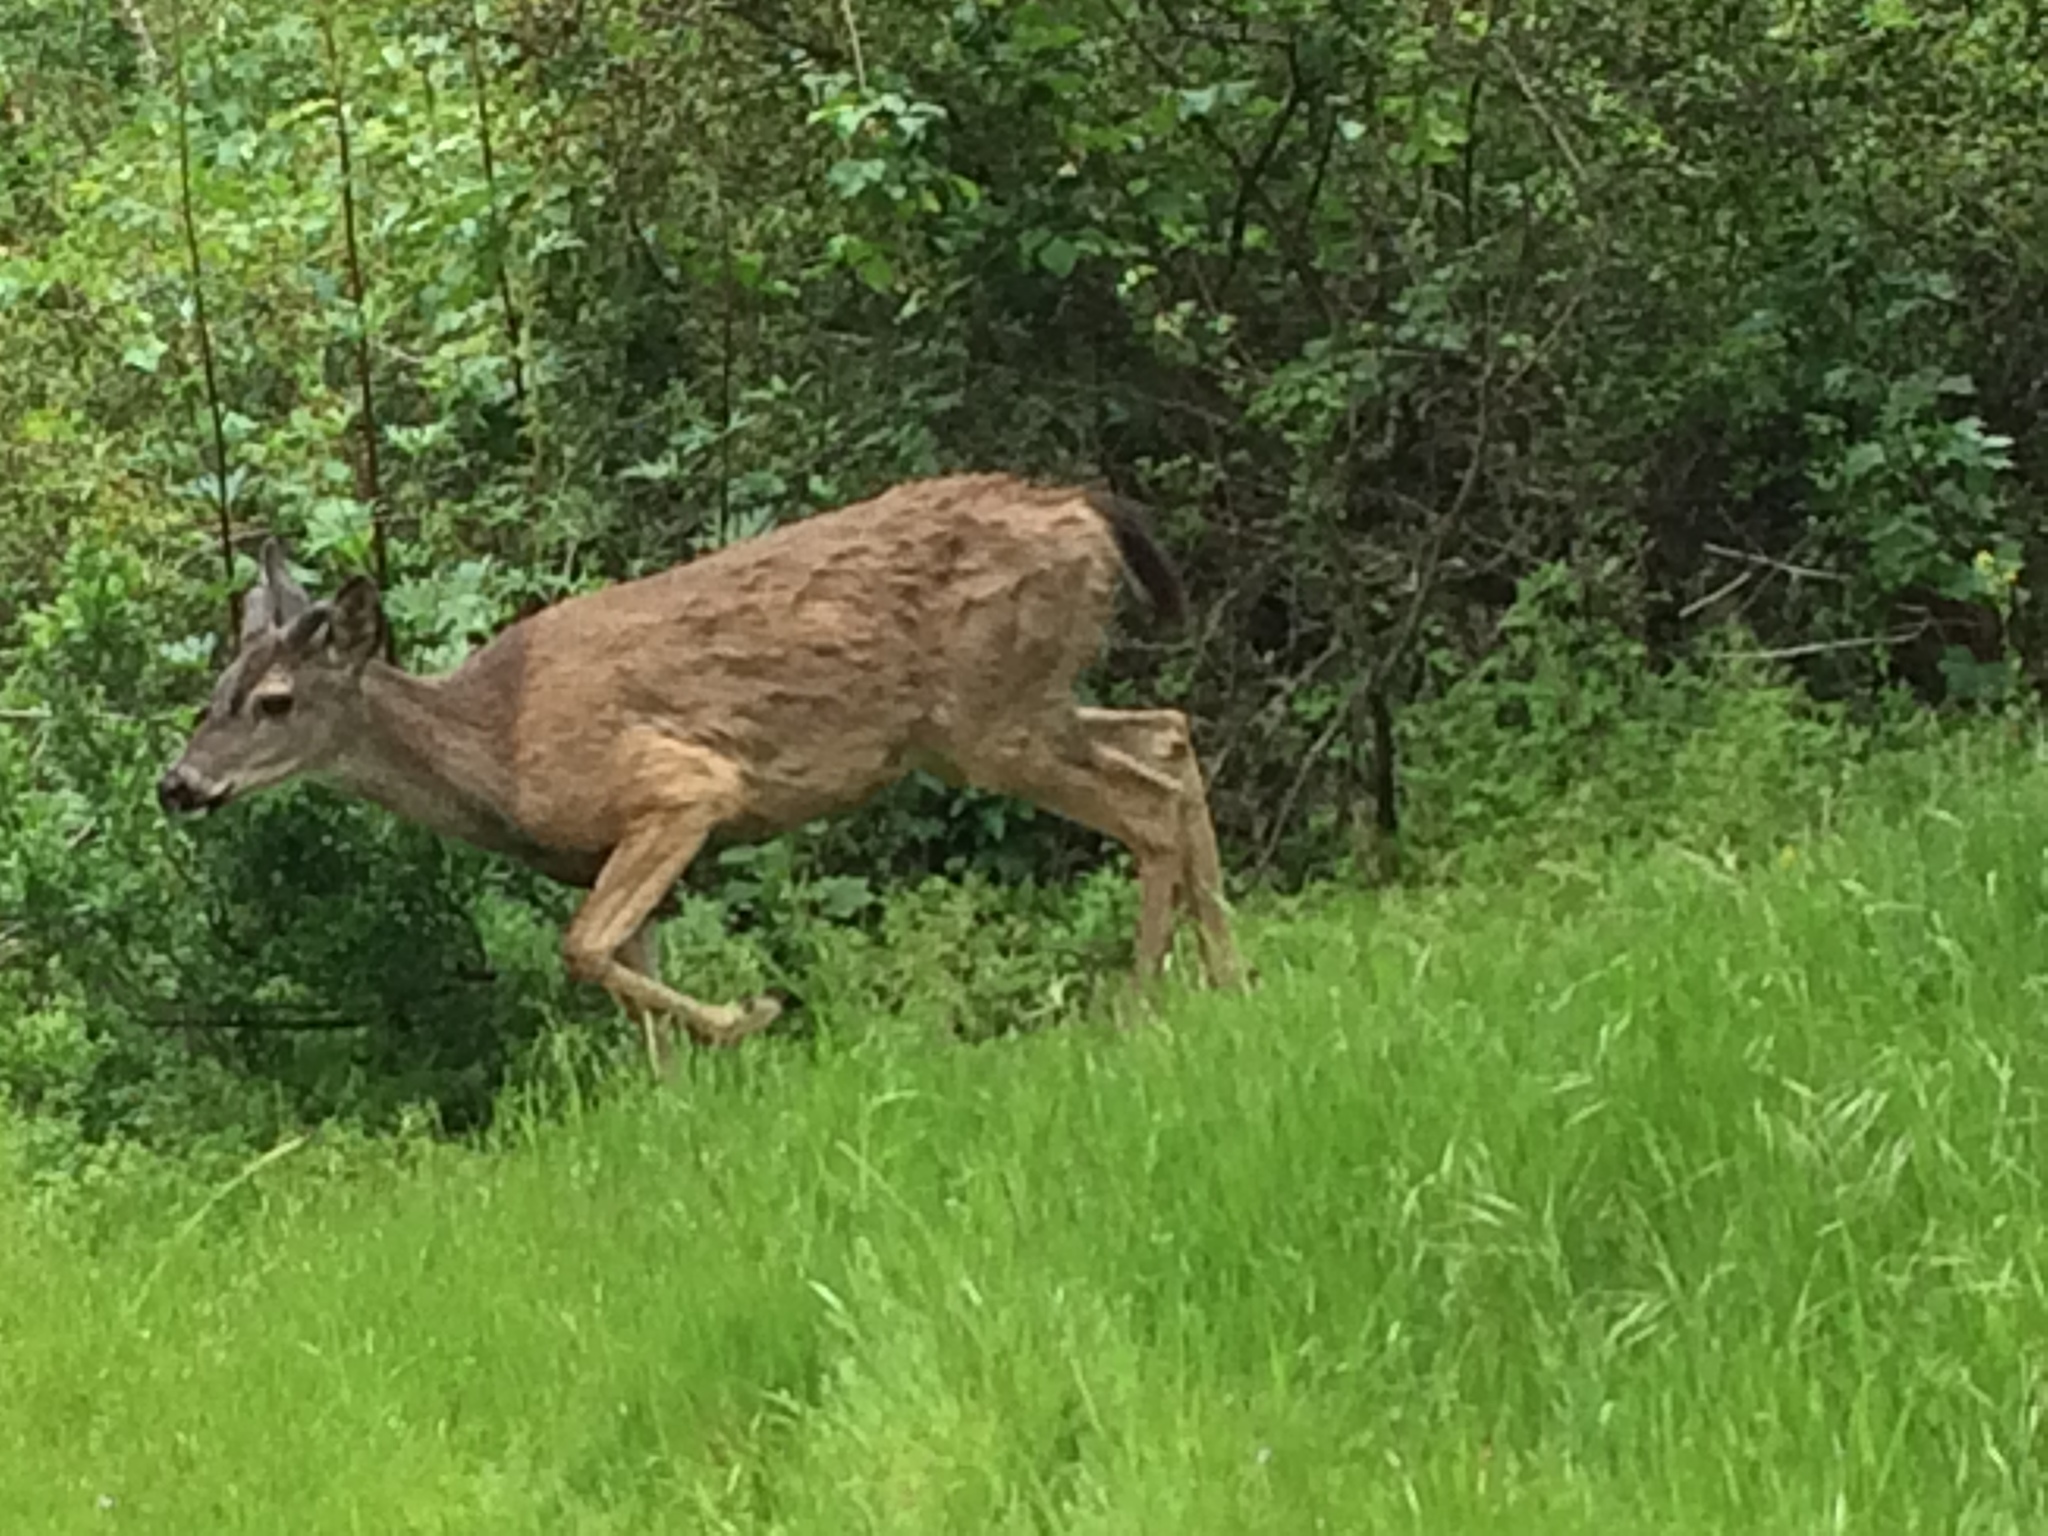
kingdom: Animalia
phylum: Chordata
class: Mammalia
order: Artiodactyla
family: Cervidae
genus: Odocoileus
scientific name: Odocoileus hemionus
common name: Mule deer
